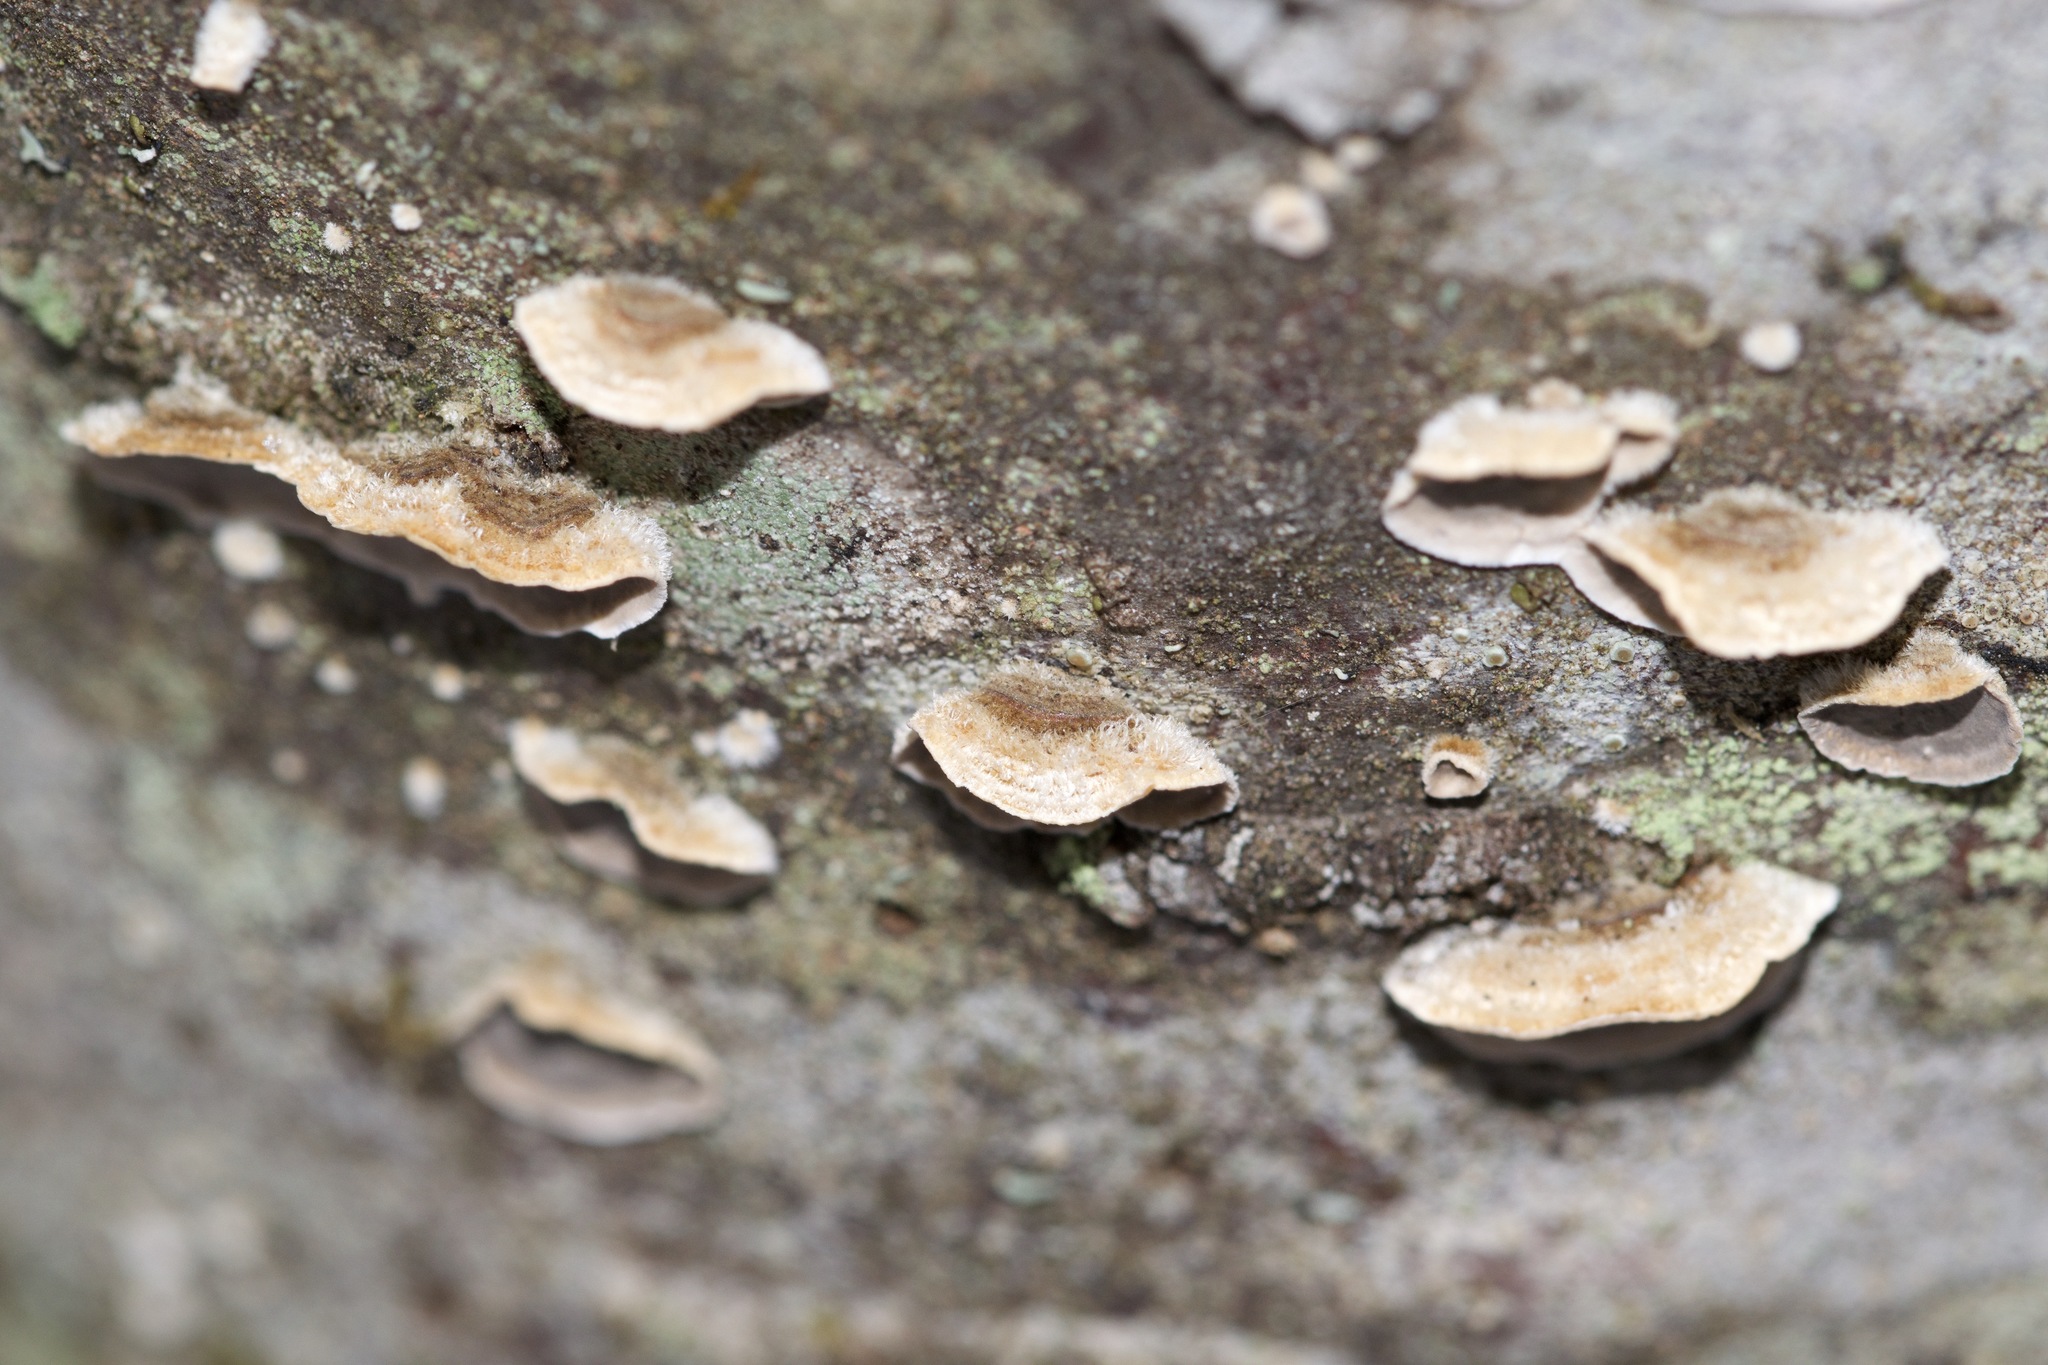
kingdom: Fungi
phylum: Basidiomycota
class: Agaricomycetes
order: Russulales
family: Stereaceae
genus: Stereum
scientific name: Stereum sanguinolentum
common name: Bleeding conifer crust
